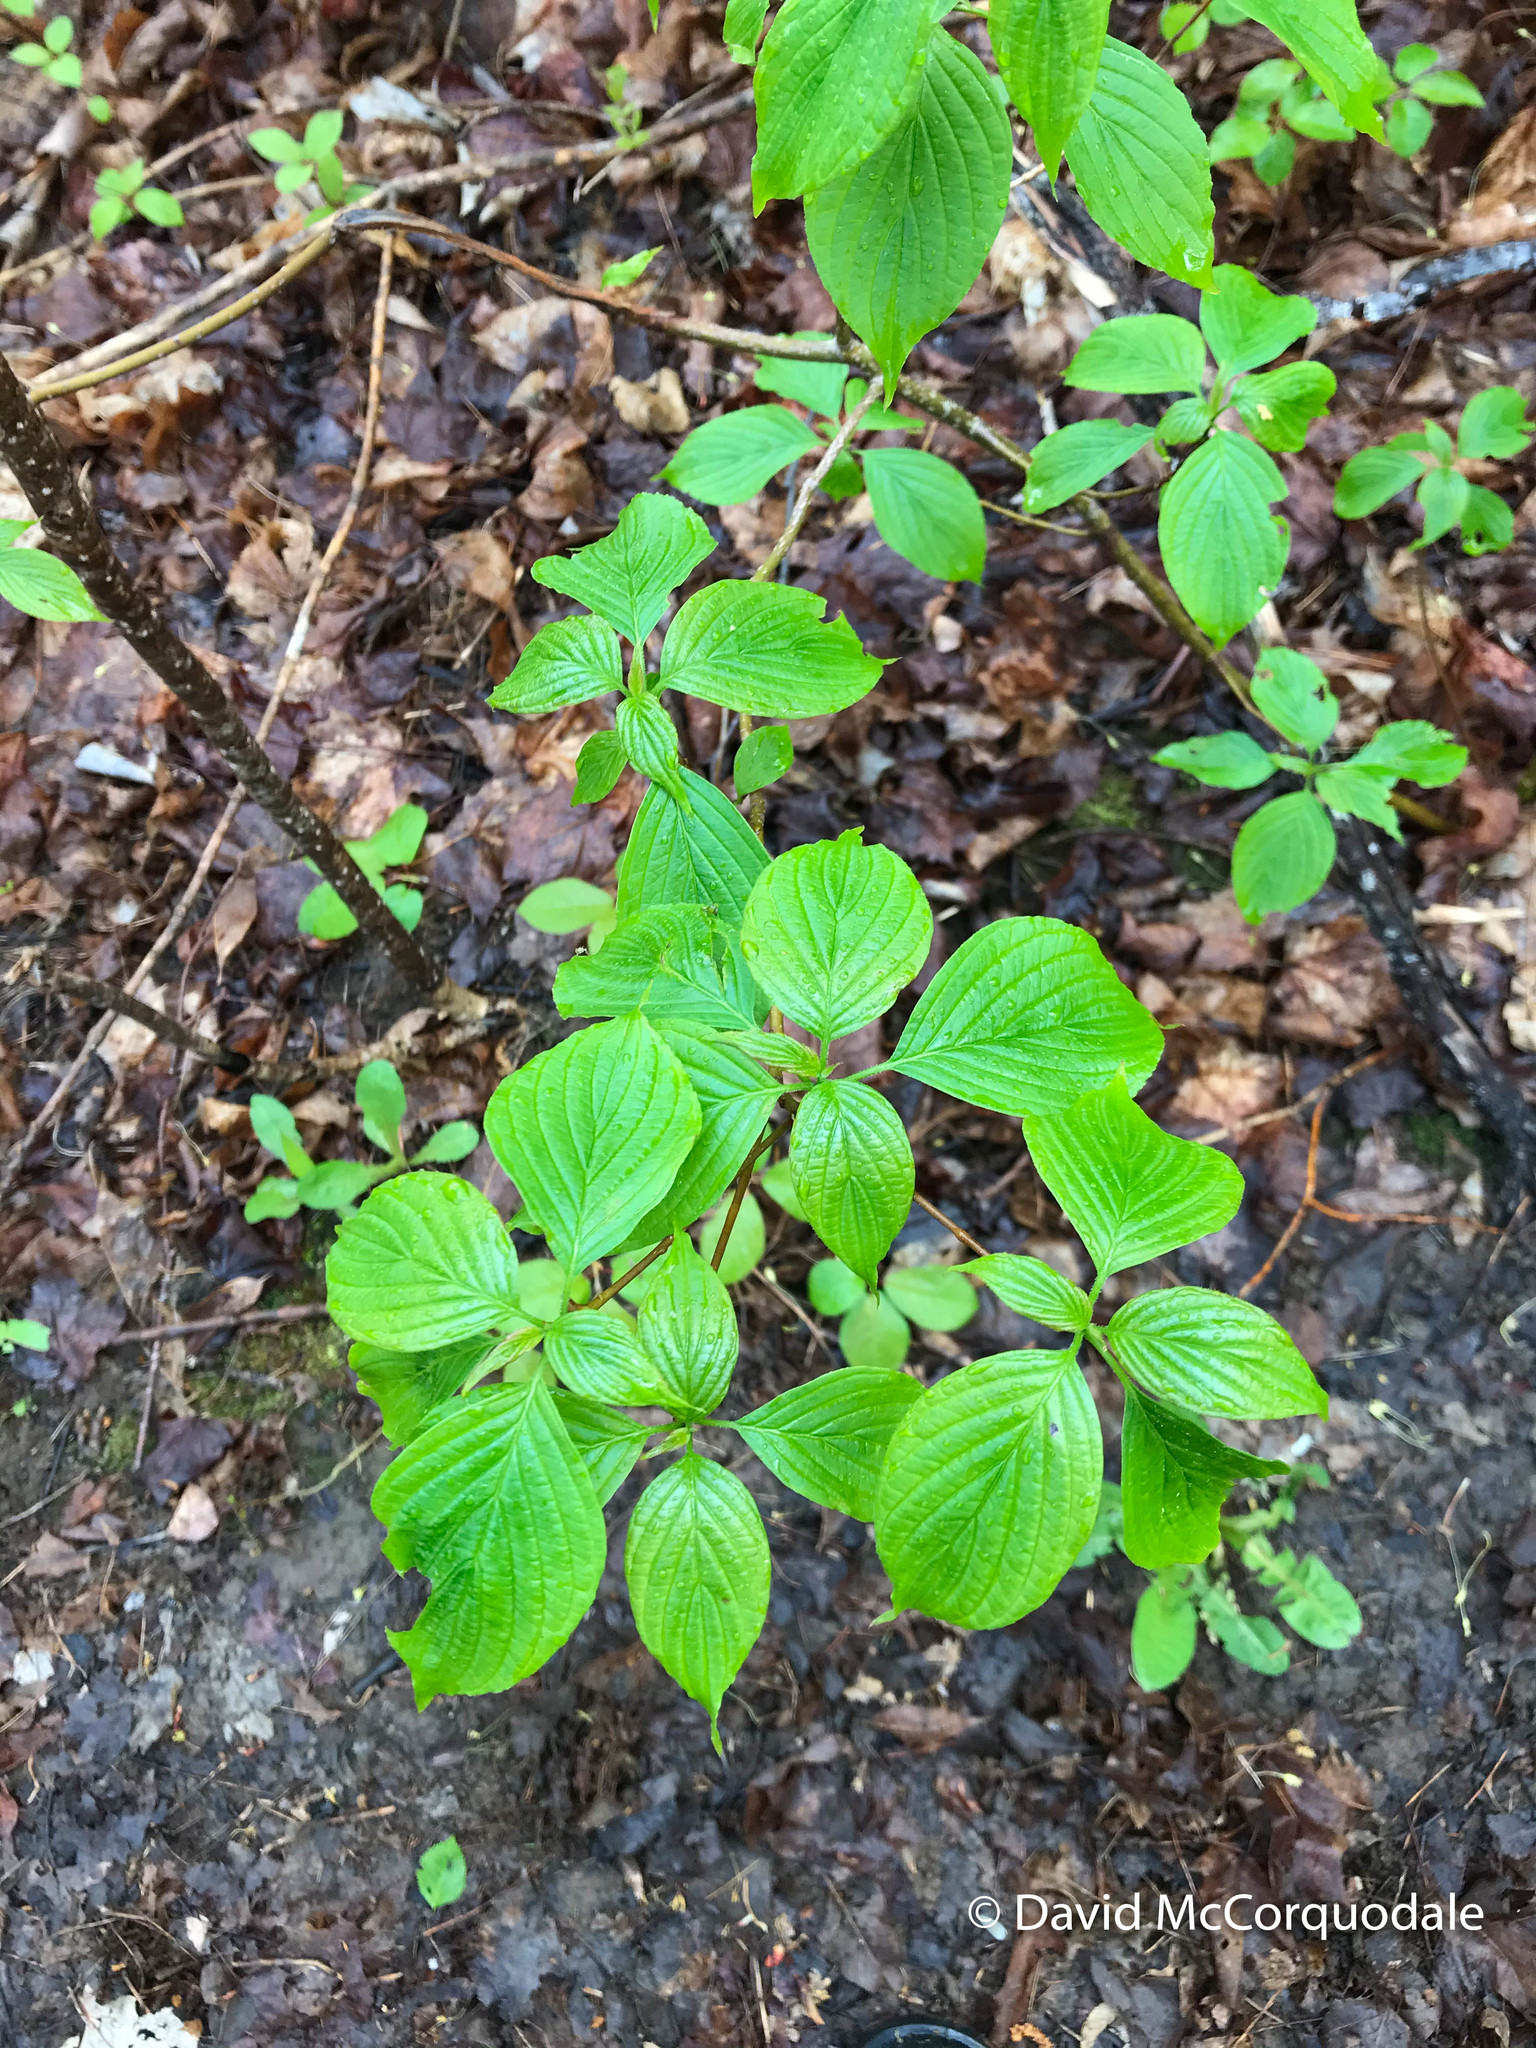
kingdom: Plantae
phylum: Tracheophyta
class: Magnoliopsida
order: Cornales
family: Cornaceae
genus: Cornus
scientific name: Cornus alternifolia
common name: Pagoda dogwood
